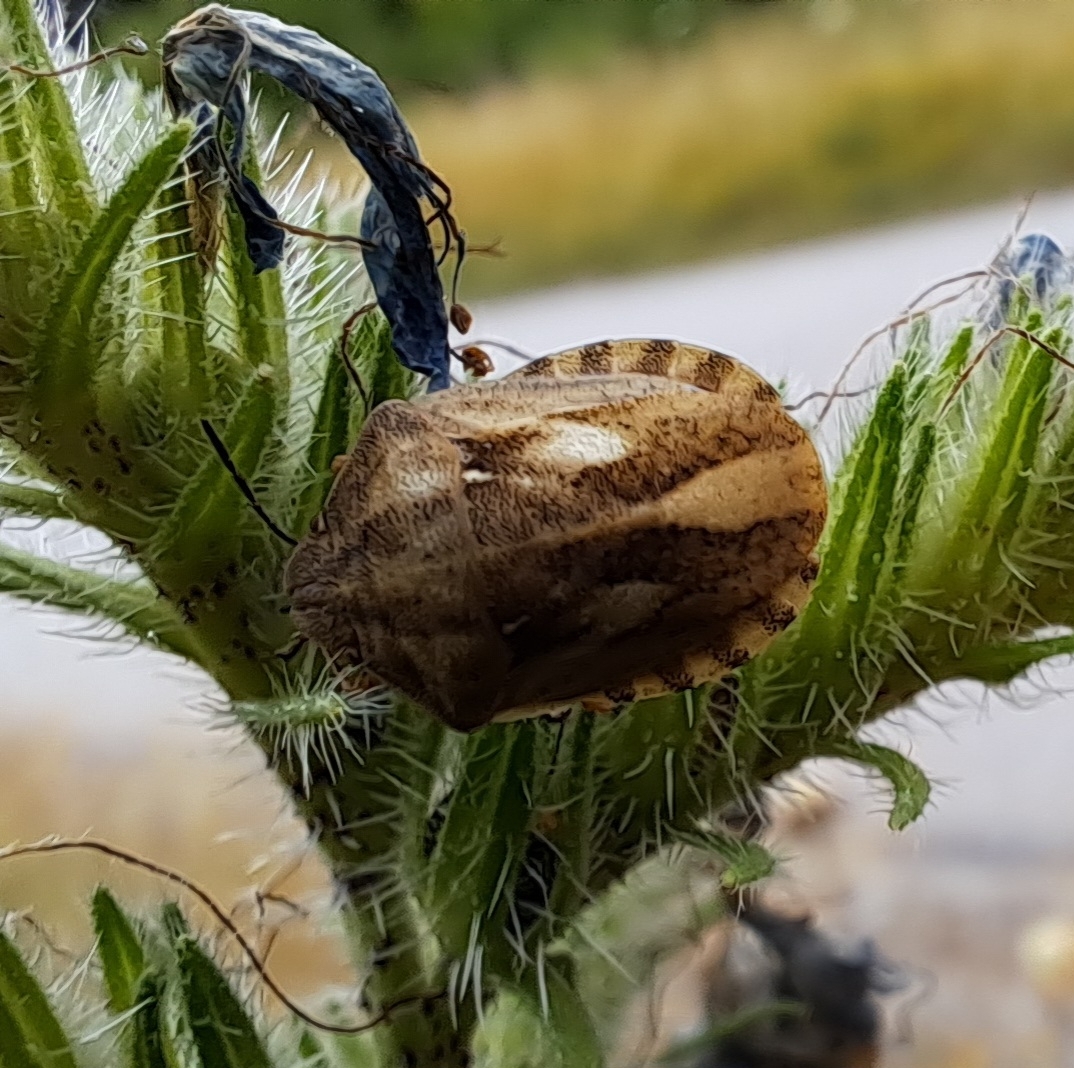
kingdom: Animalia
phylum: Arthropoda
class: Insecta
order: Hemiptera
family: Scutelleridae
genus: Eurygaster
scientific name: Eurygaster testudinaria
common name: Tortoise bug
